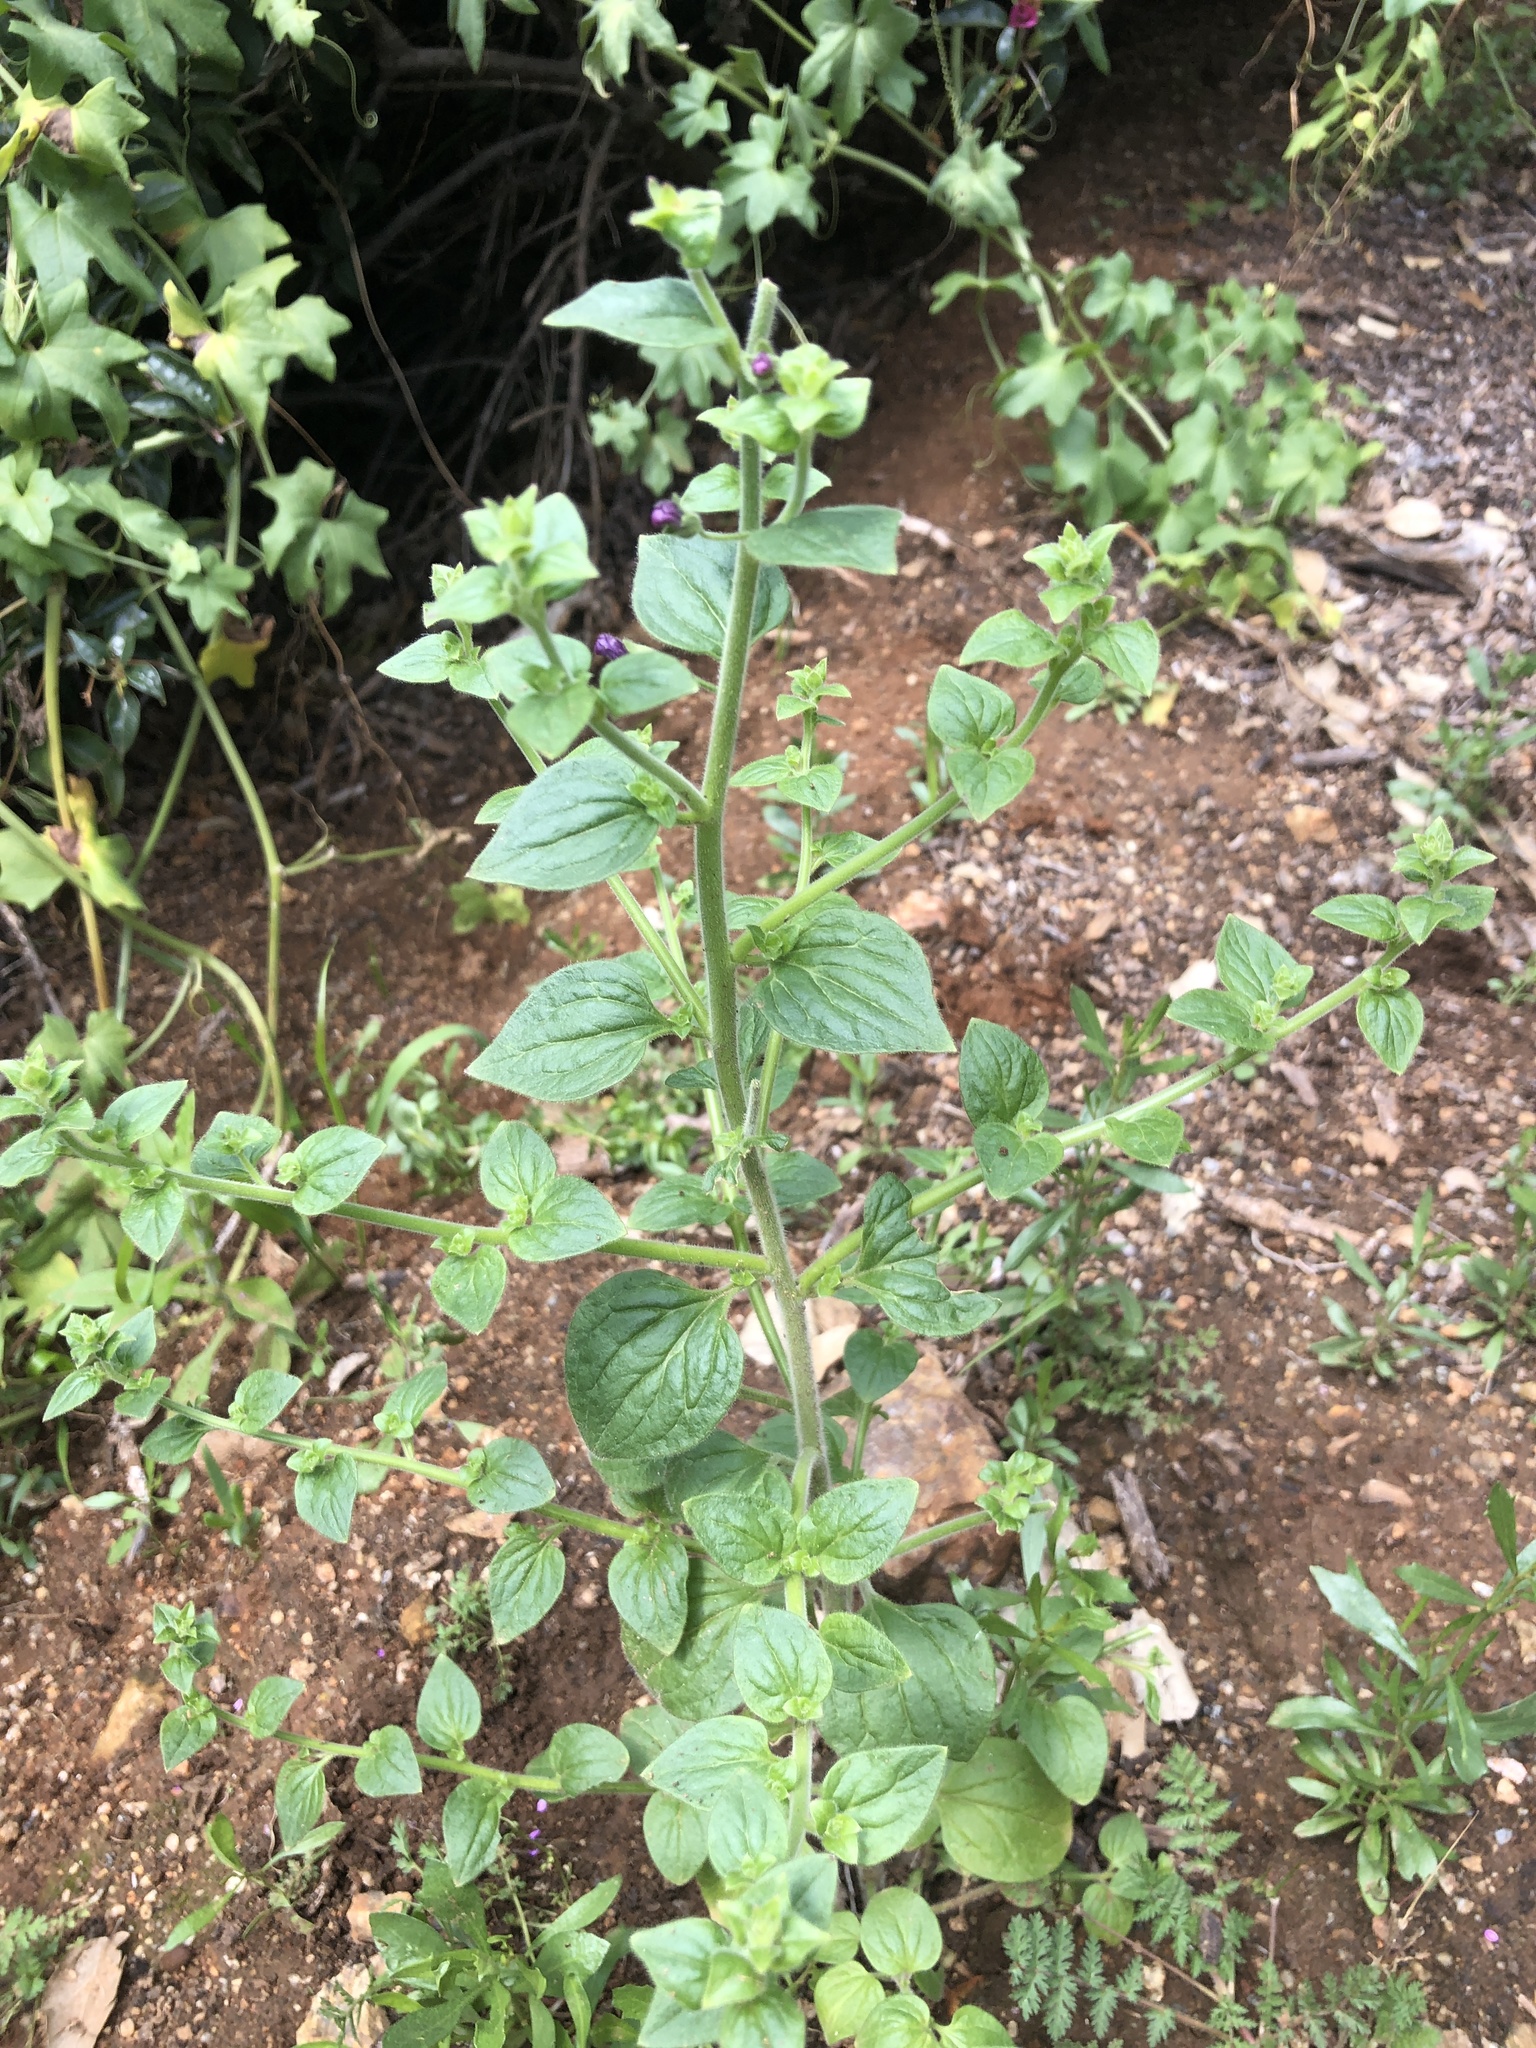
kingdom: Plantae
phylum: Tracheophyta
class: Magnoliopsida
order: Lamiales
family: Plantaginaceae
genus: Sairocarpus
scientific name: Sairocarpus nuttallianus
